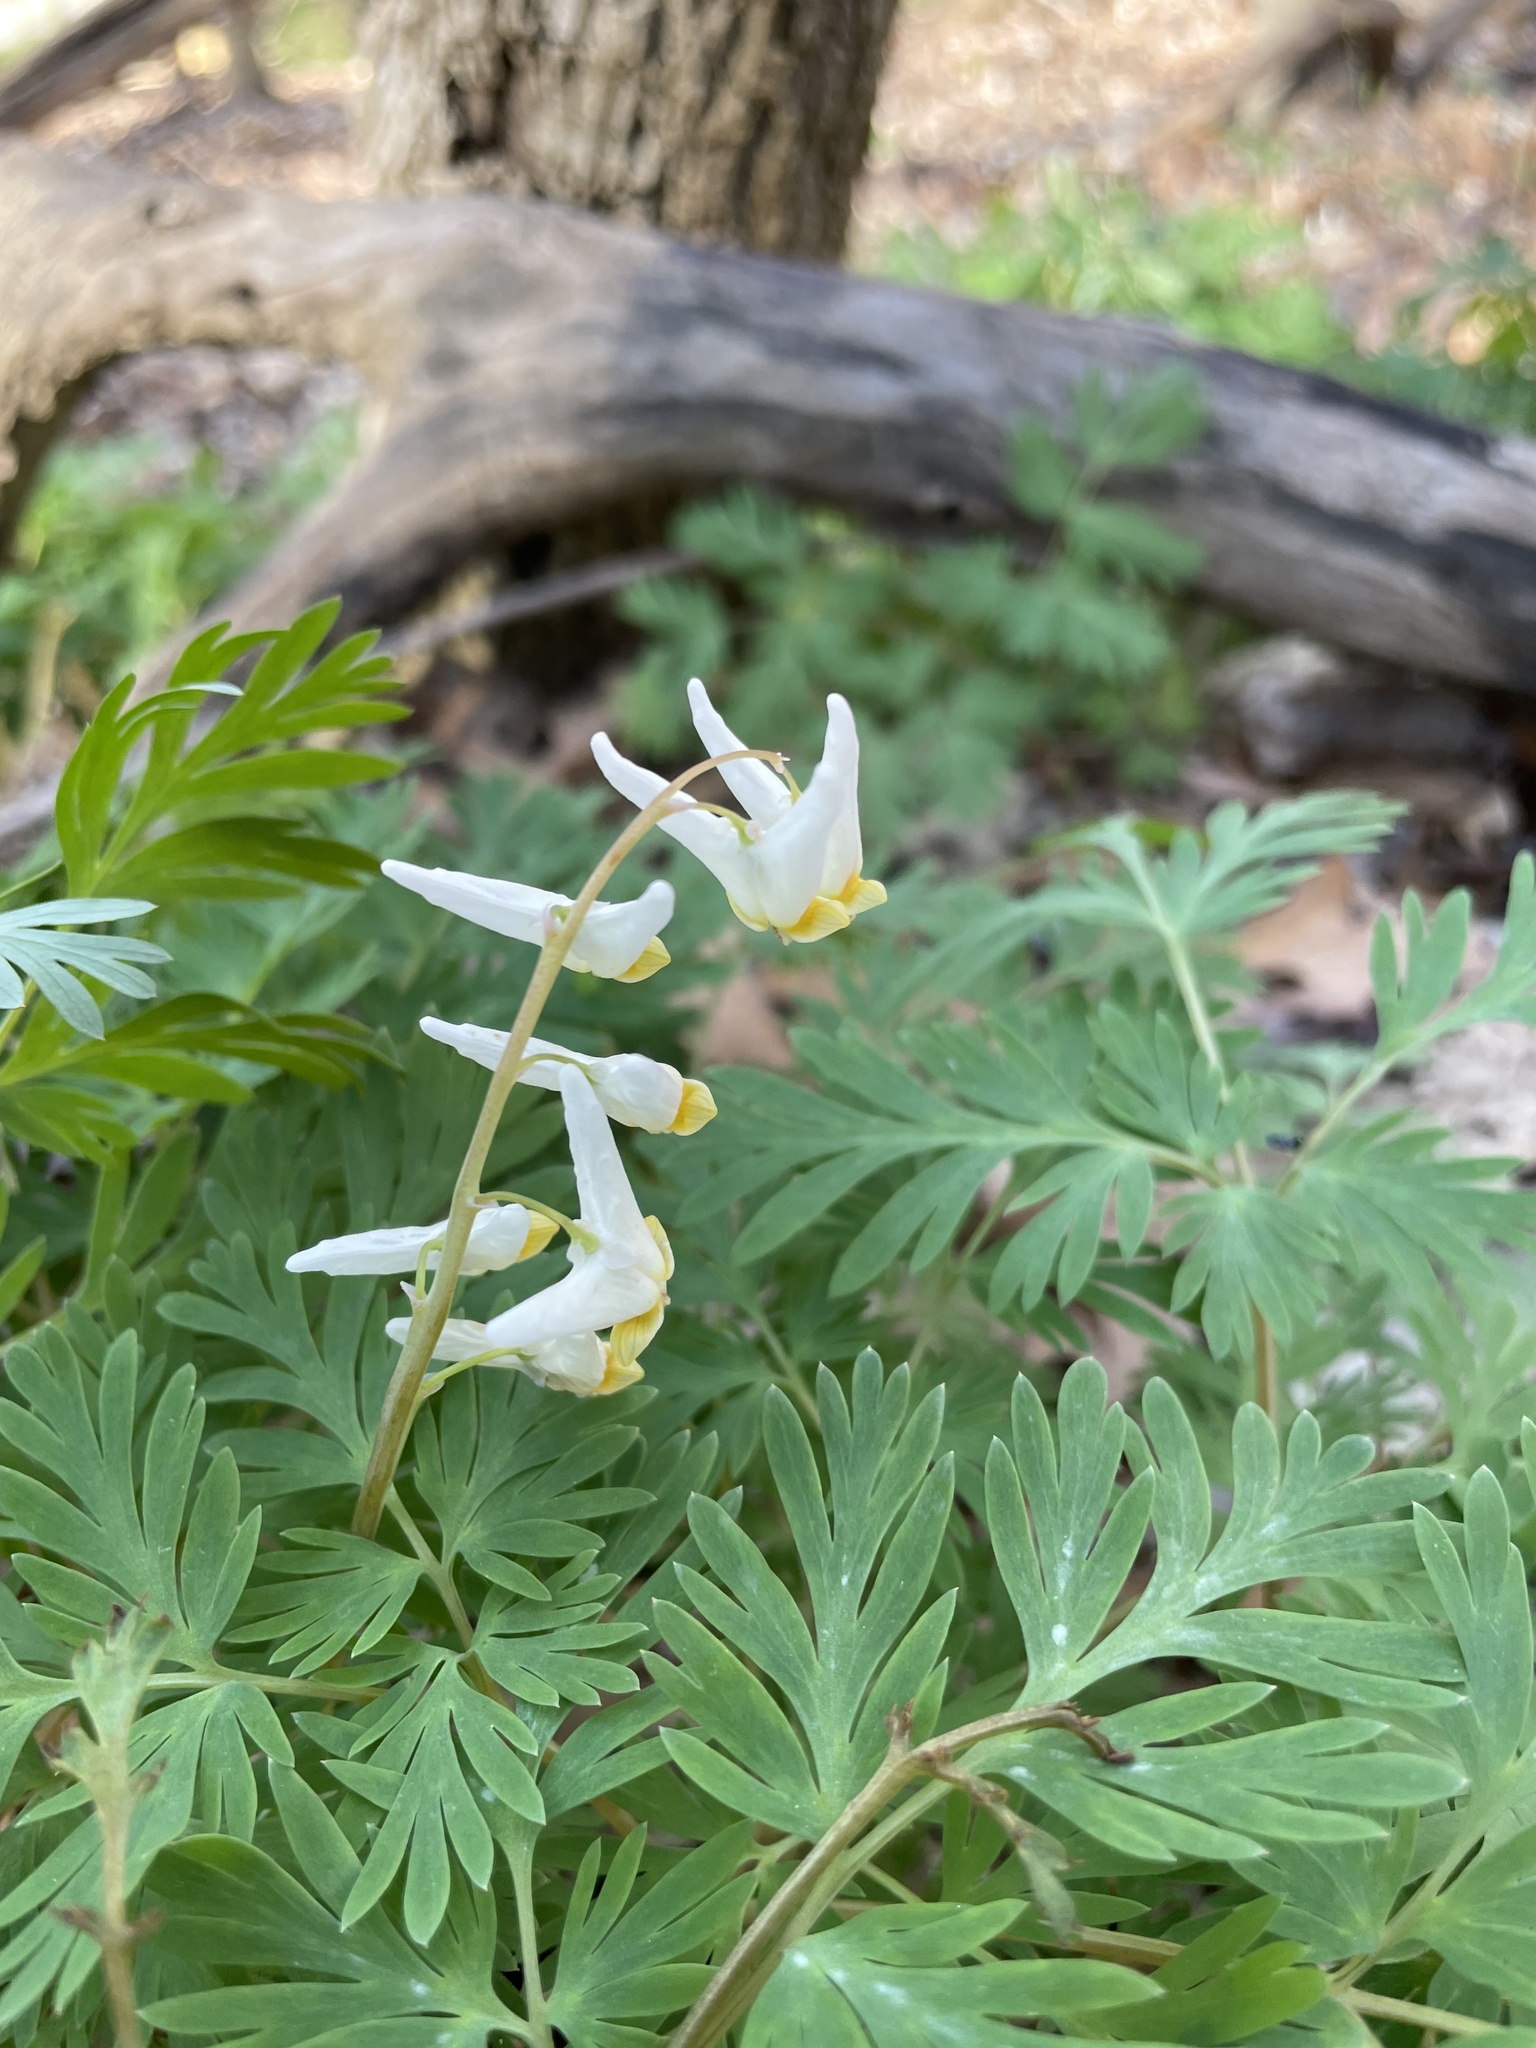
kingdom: Plantae
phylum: Tracheophyta
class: Magnoliopsida
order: Ranunculales
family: Papaveraceae
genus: Dicentra
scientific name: Dicentra cucullaria
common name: Dutchman's breeches
